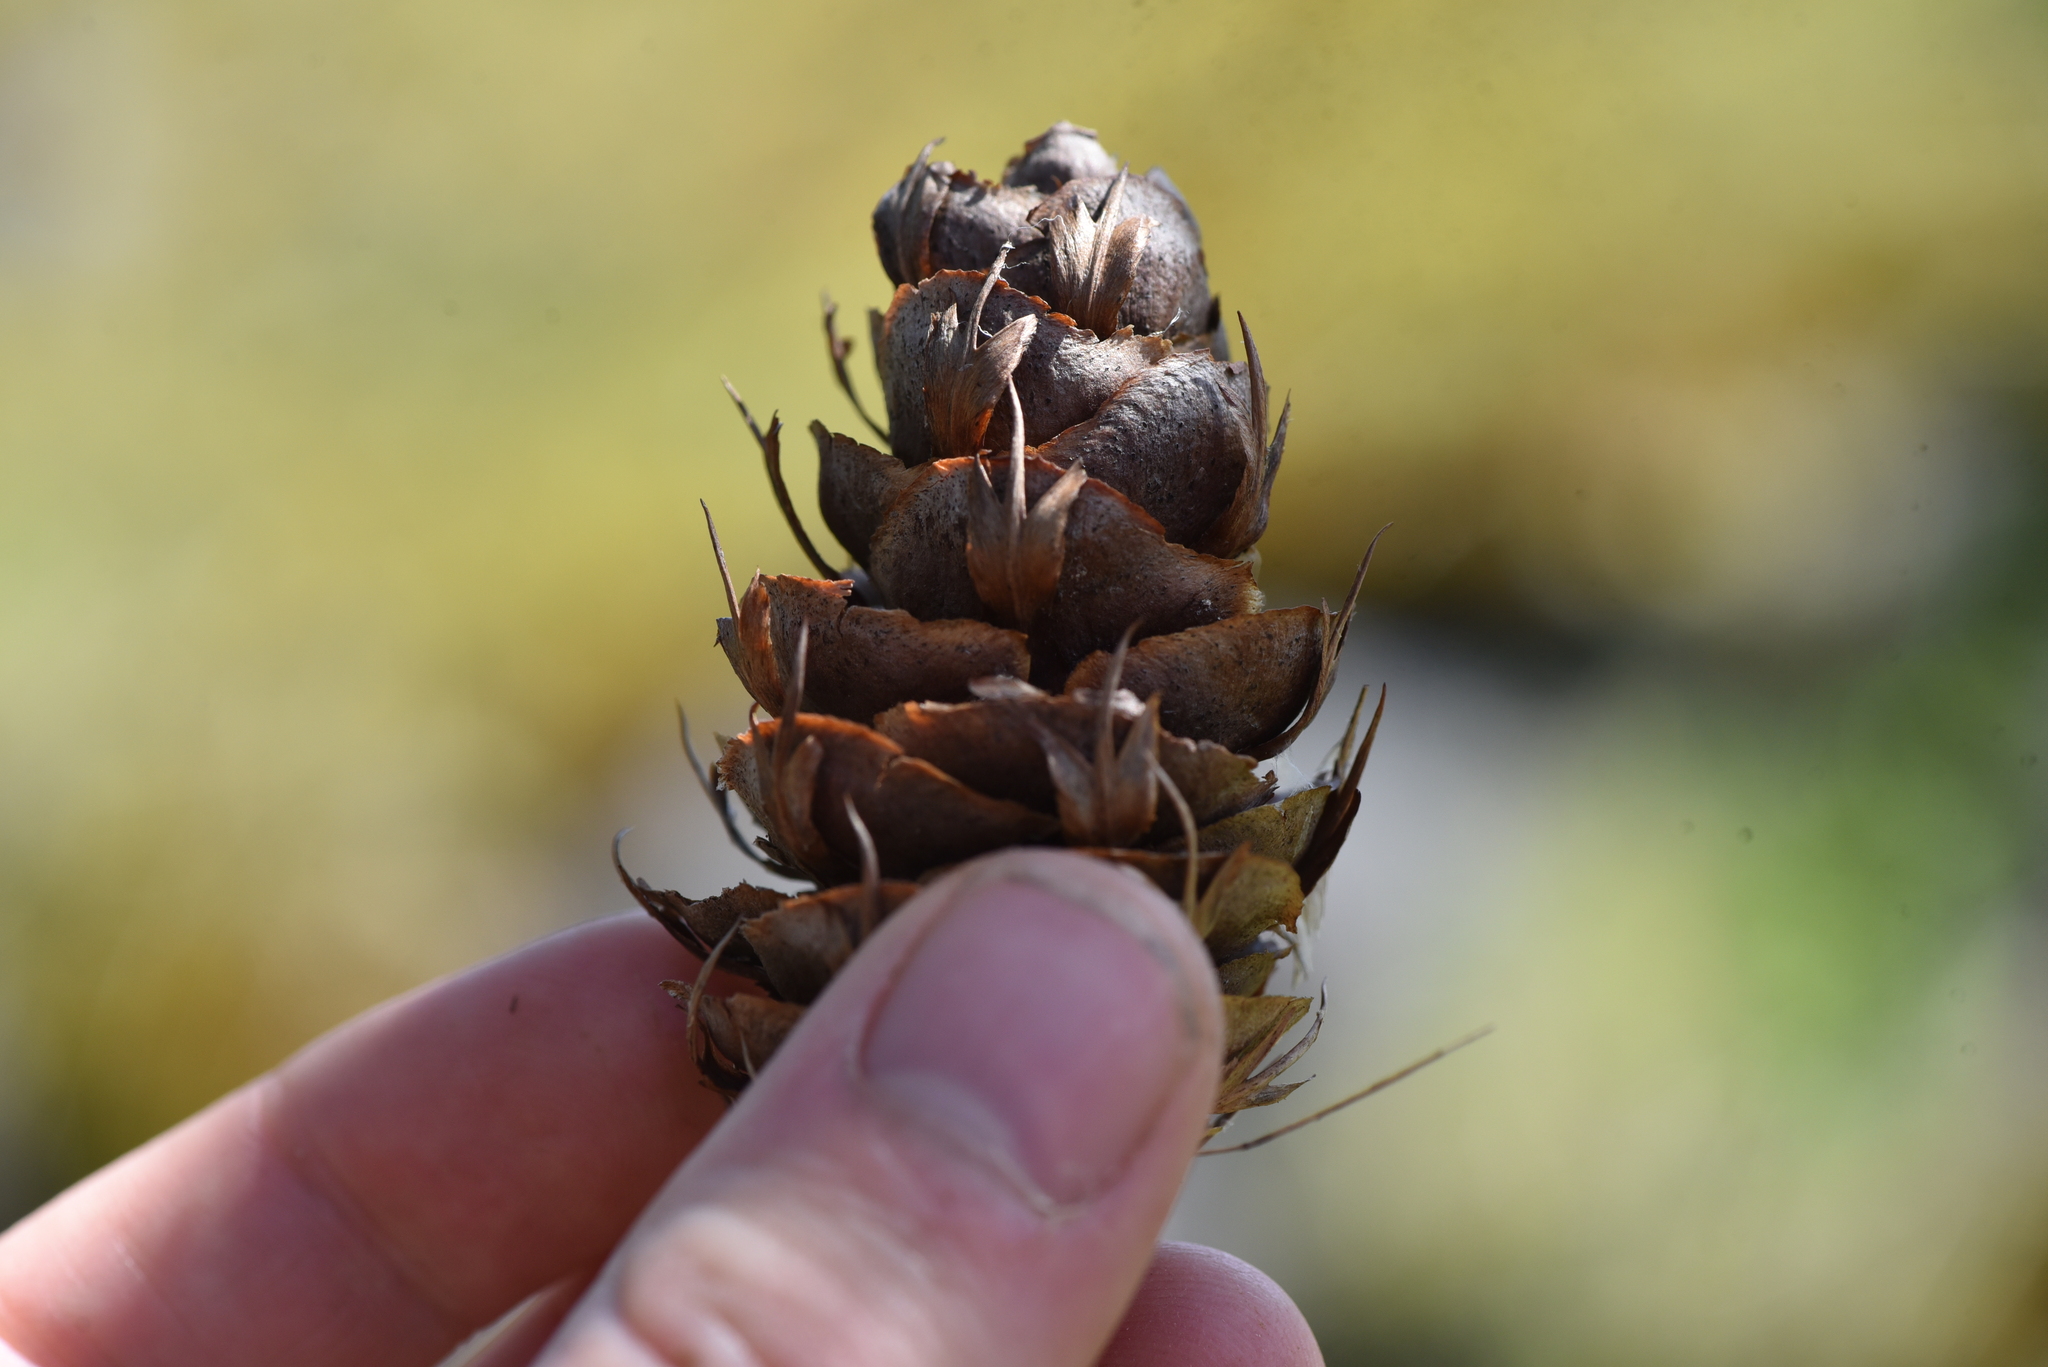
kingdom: Plantae
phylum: Tracheophyta
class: Pinopsida
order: Pinales
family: Pinaceae
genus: Pseudotsuga
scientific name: Pseudotsuga menziesii
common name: Douglas fir
